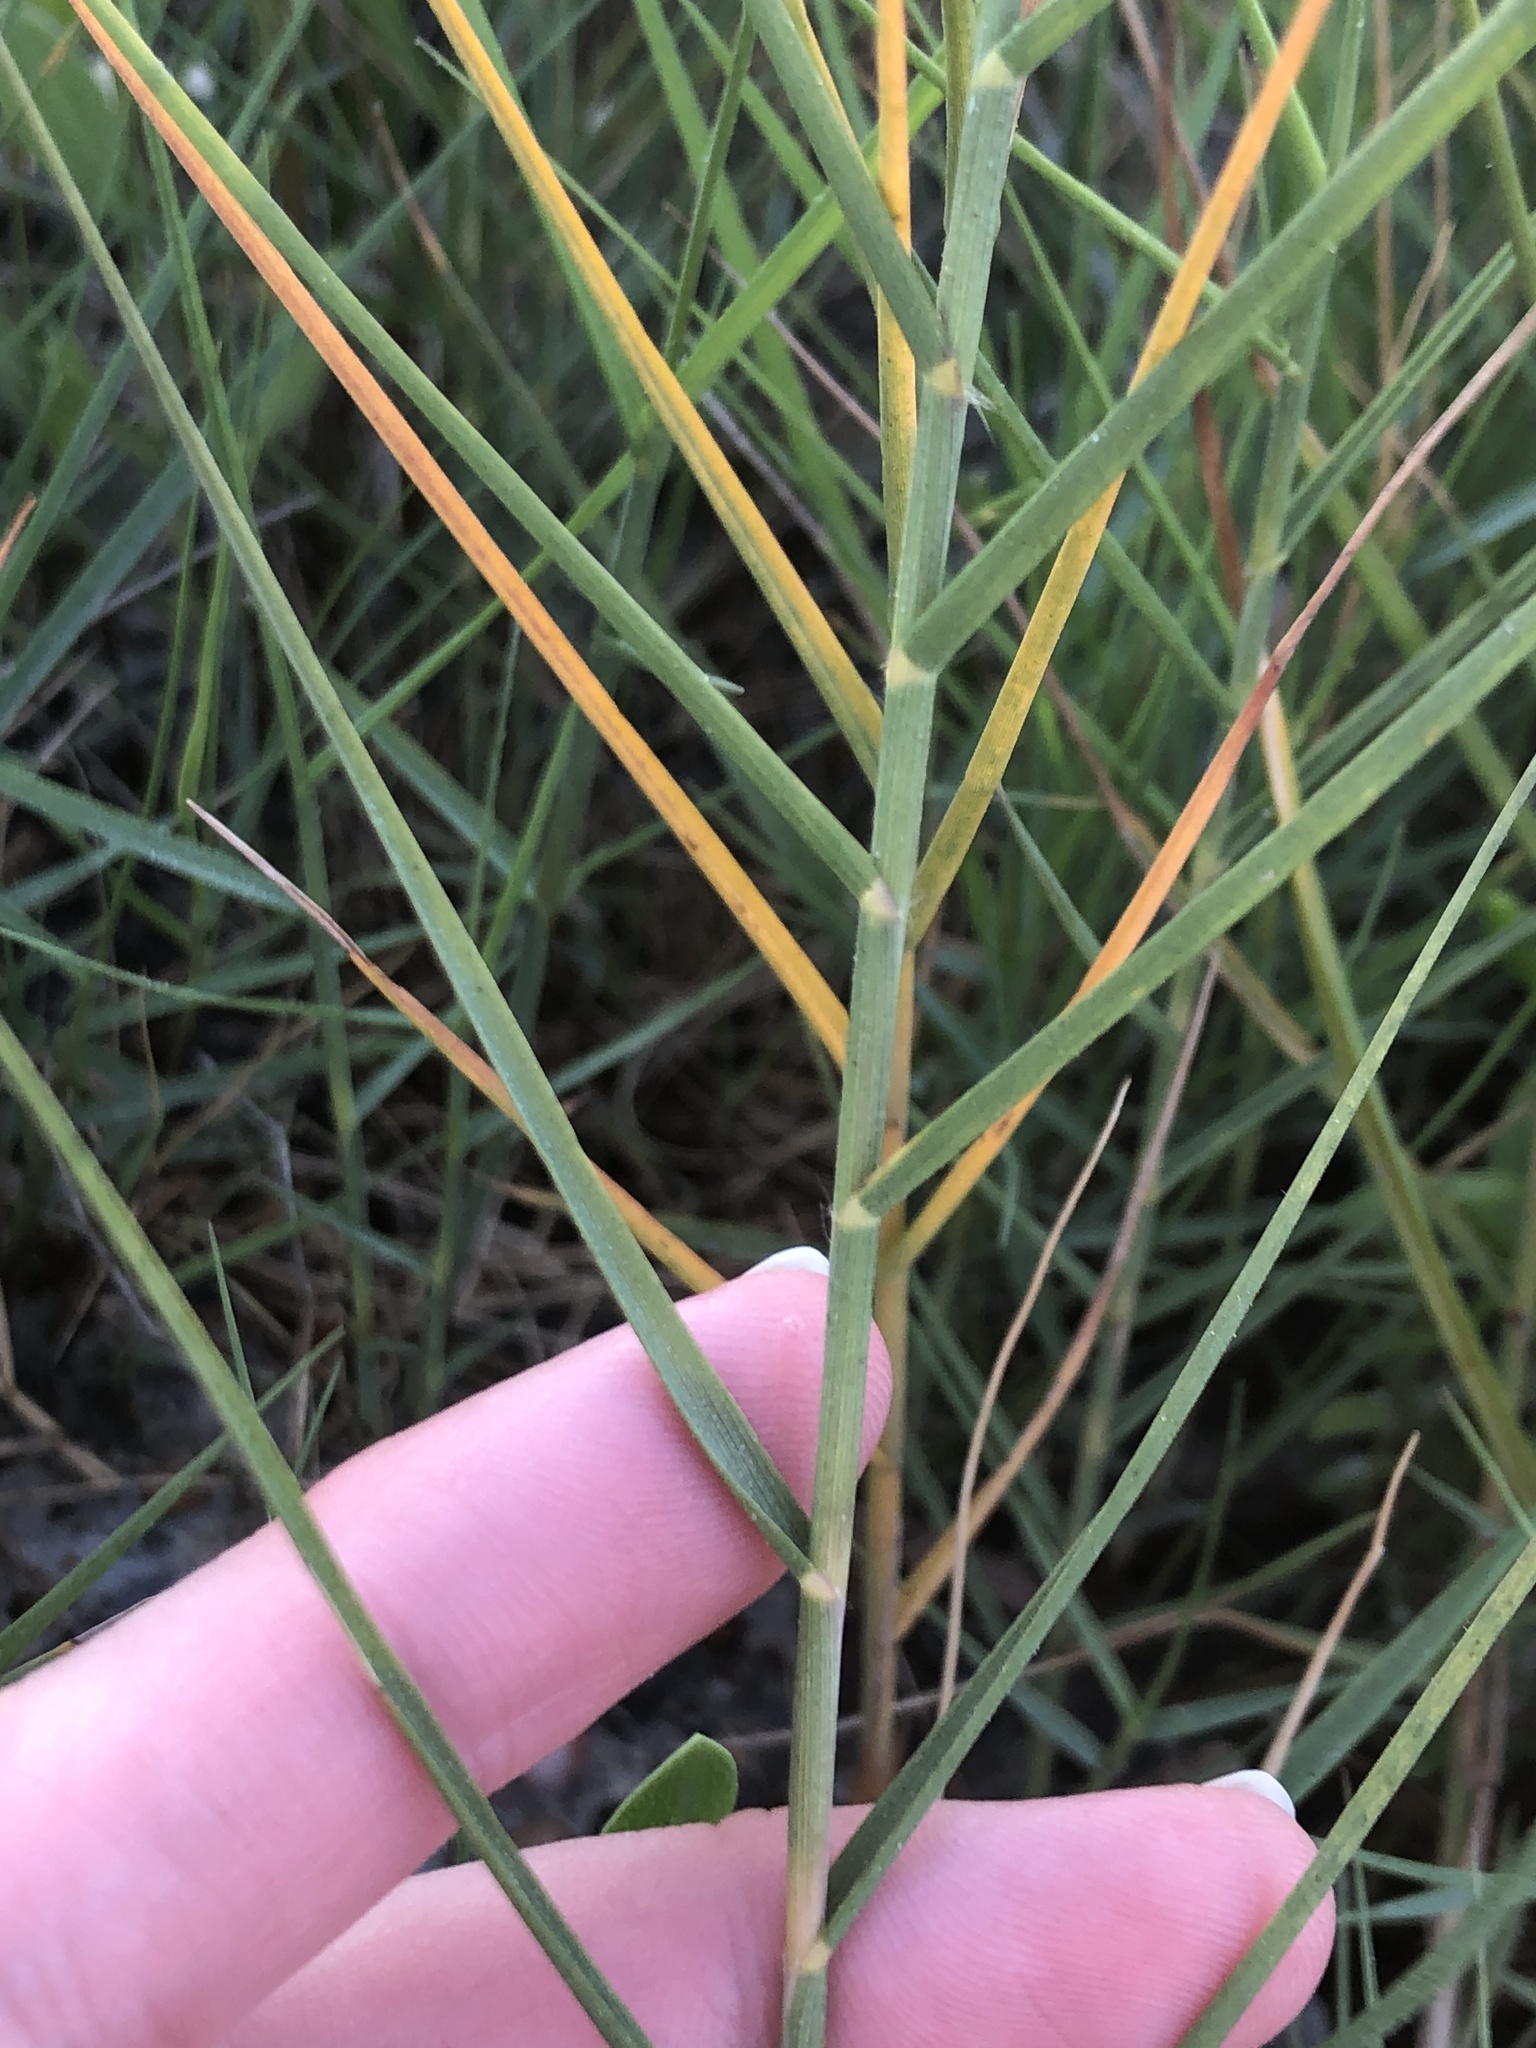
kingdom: Plantae
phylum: Tracheophyta
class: Liliopsida
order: Poales
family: Poaceae
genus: Distichlis
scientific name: Distichlis spicata
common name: Saltgrass
